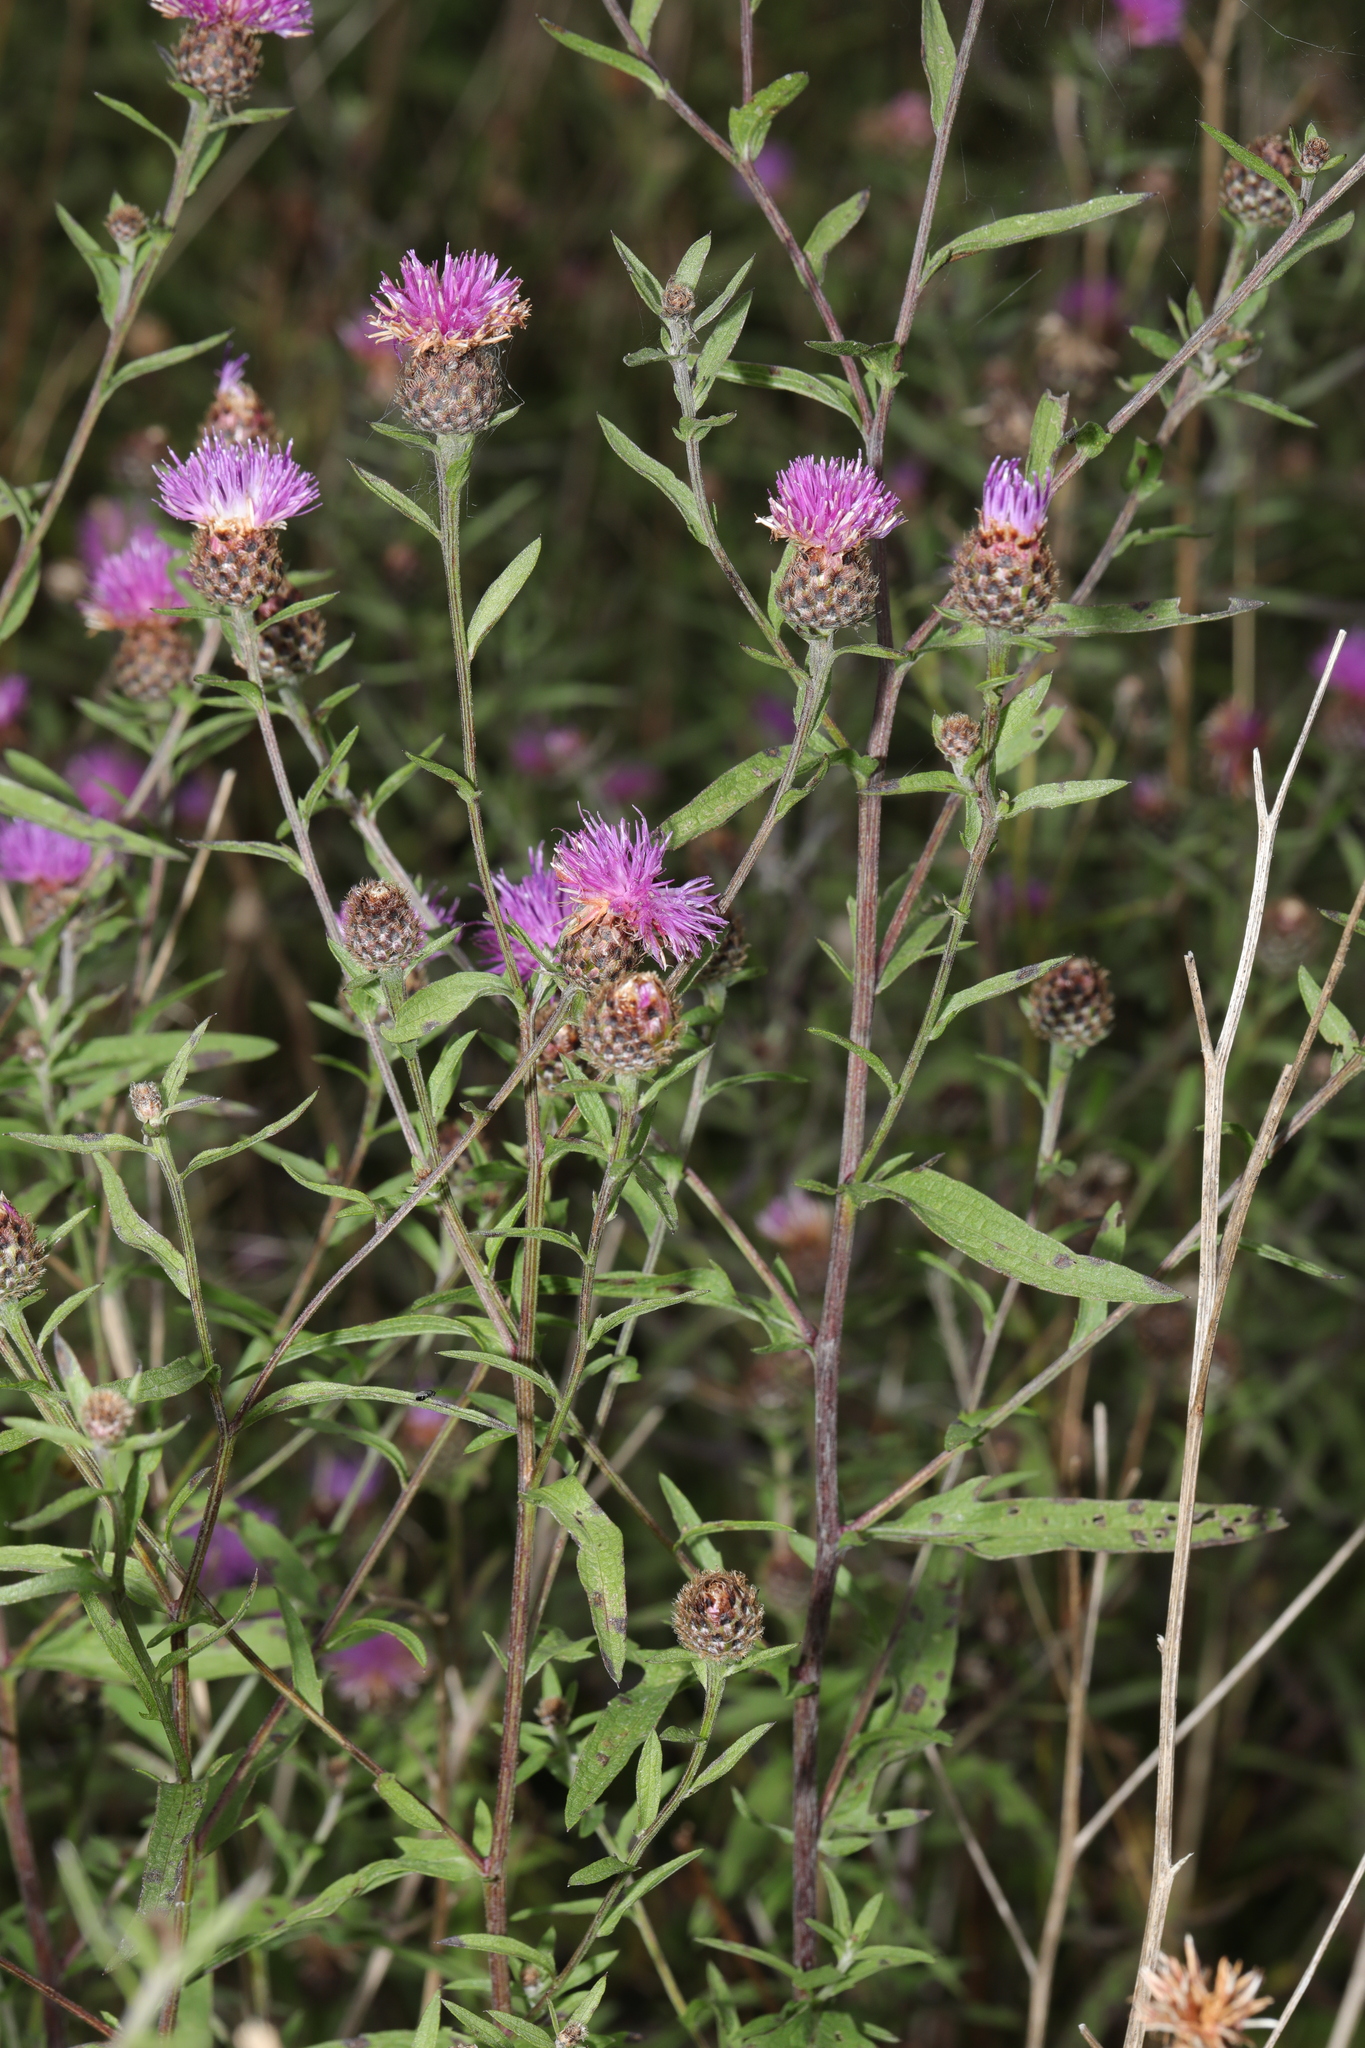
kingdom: Plantae
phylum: Tracheophyta
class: Magnoliopsida
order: Asterales
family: Asteraceae
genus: Centaurea
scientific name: Centaurea nigra
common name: Lesser knapweed
